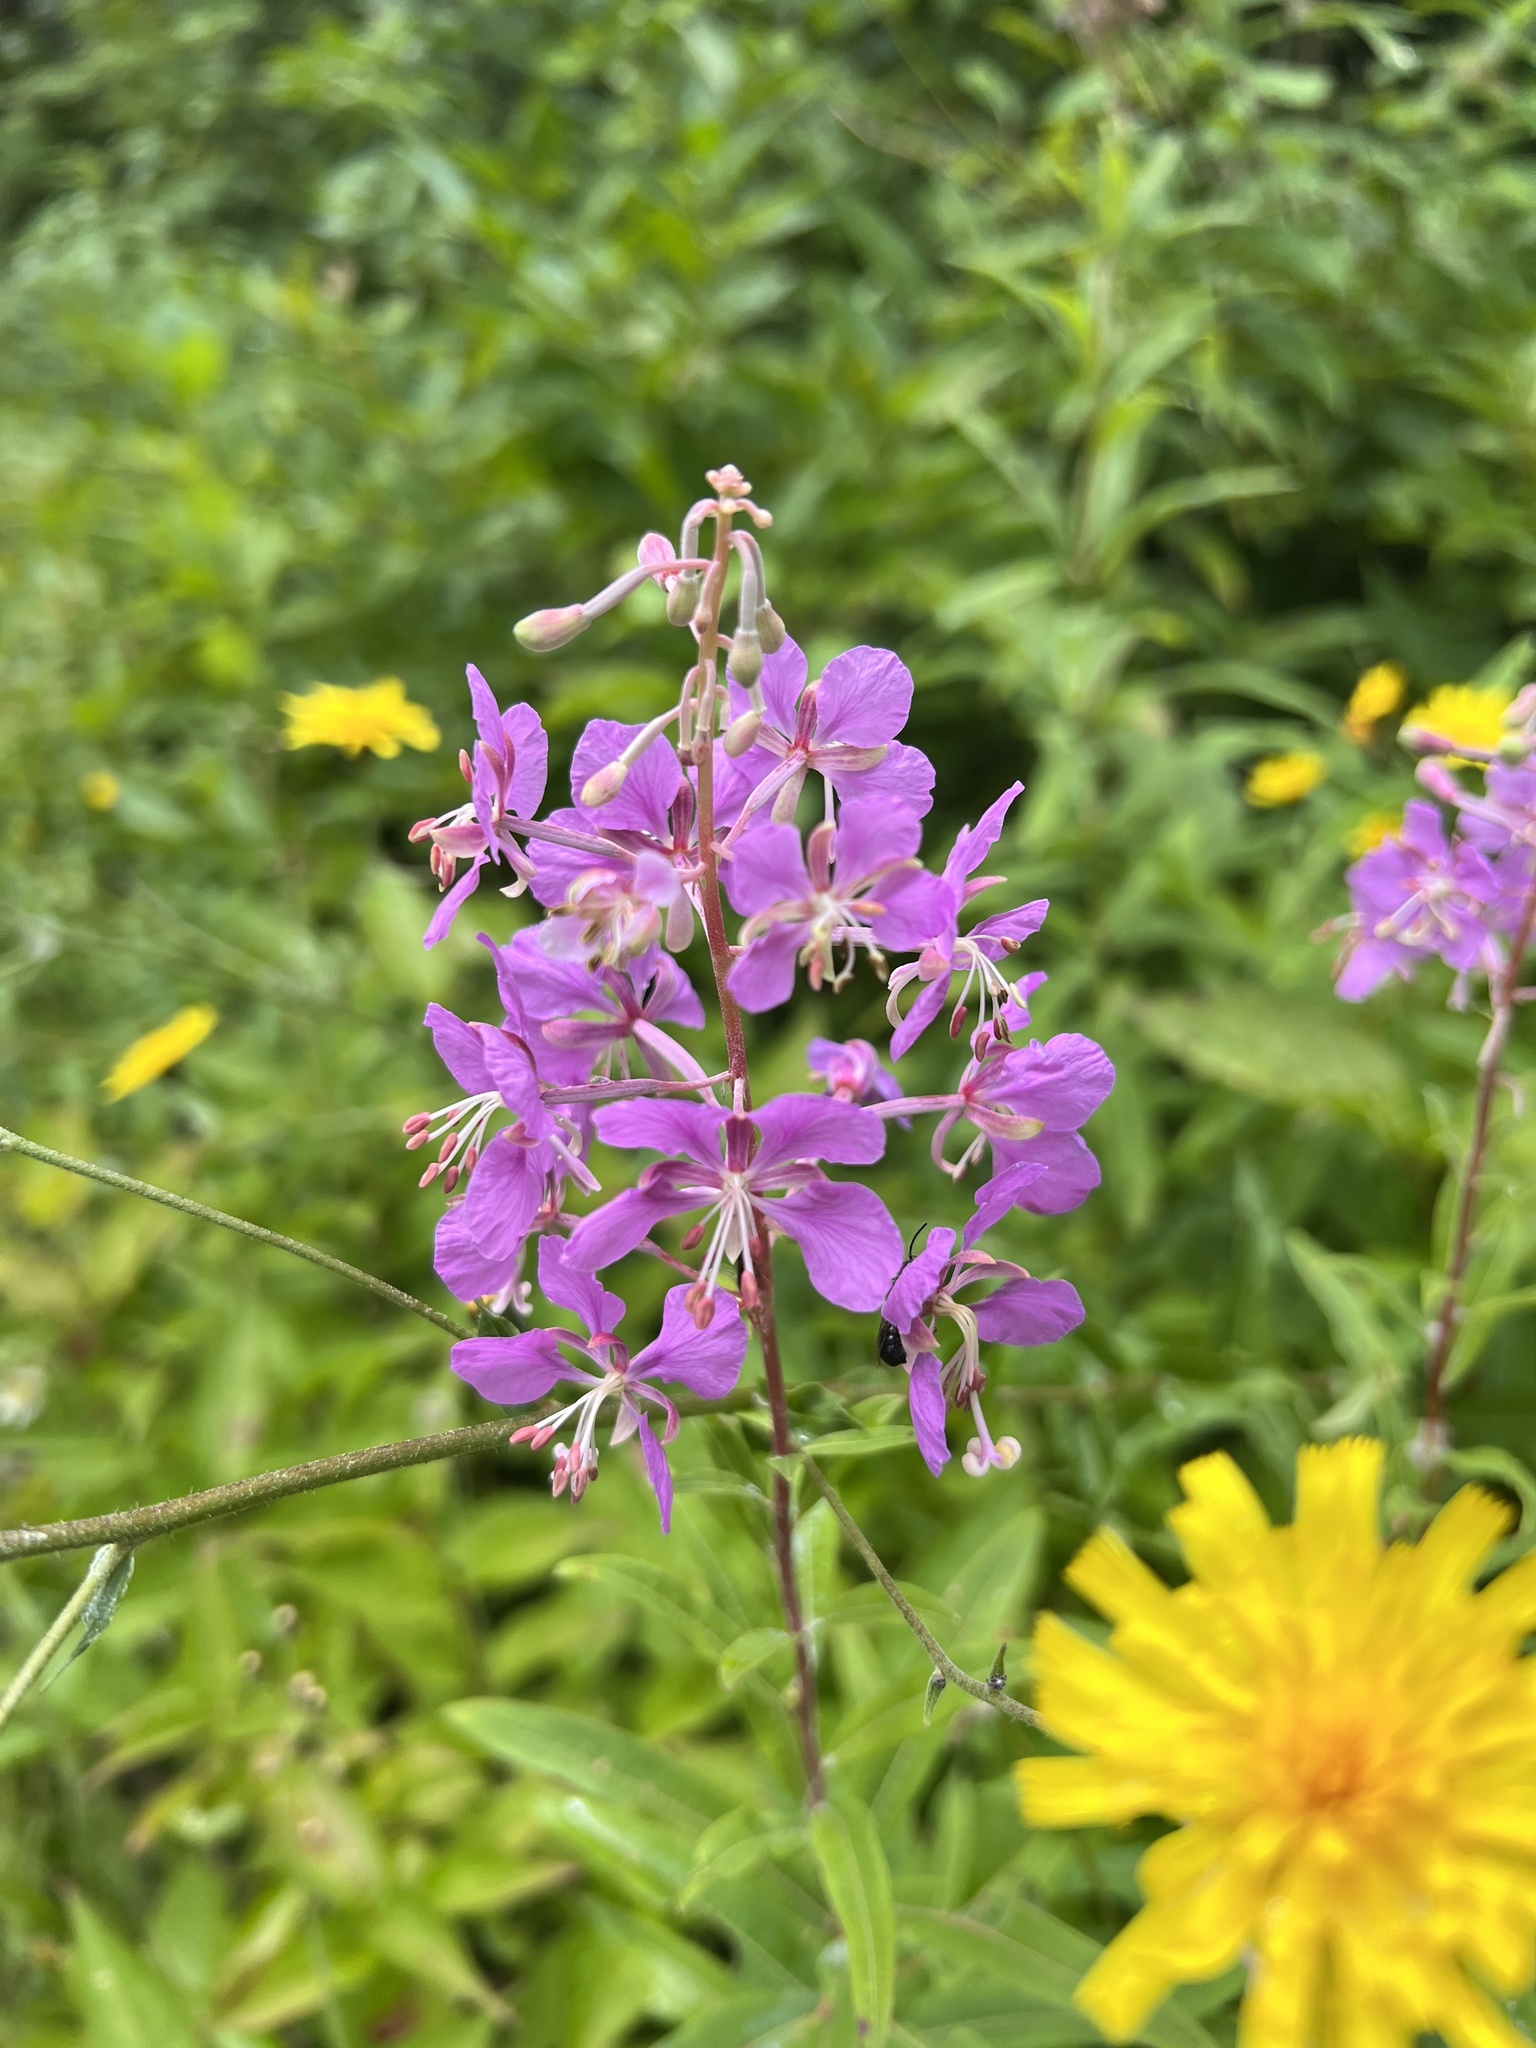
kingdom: Plantae
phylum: Tracheophyta
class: Magnoliopsida
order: Myrtales
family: Onagraceae
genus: Chamaenerion
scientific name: Chamaenerion angustifolium
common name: Fireweed
